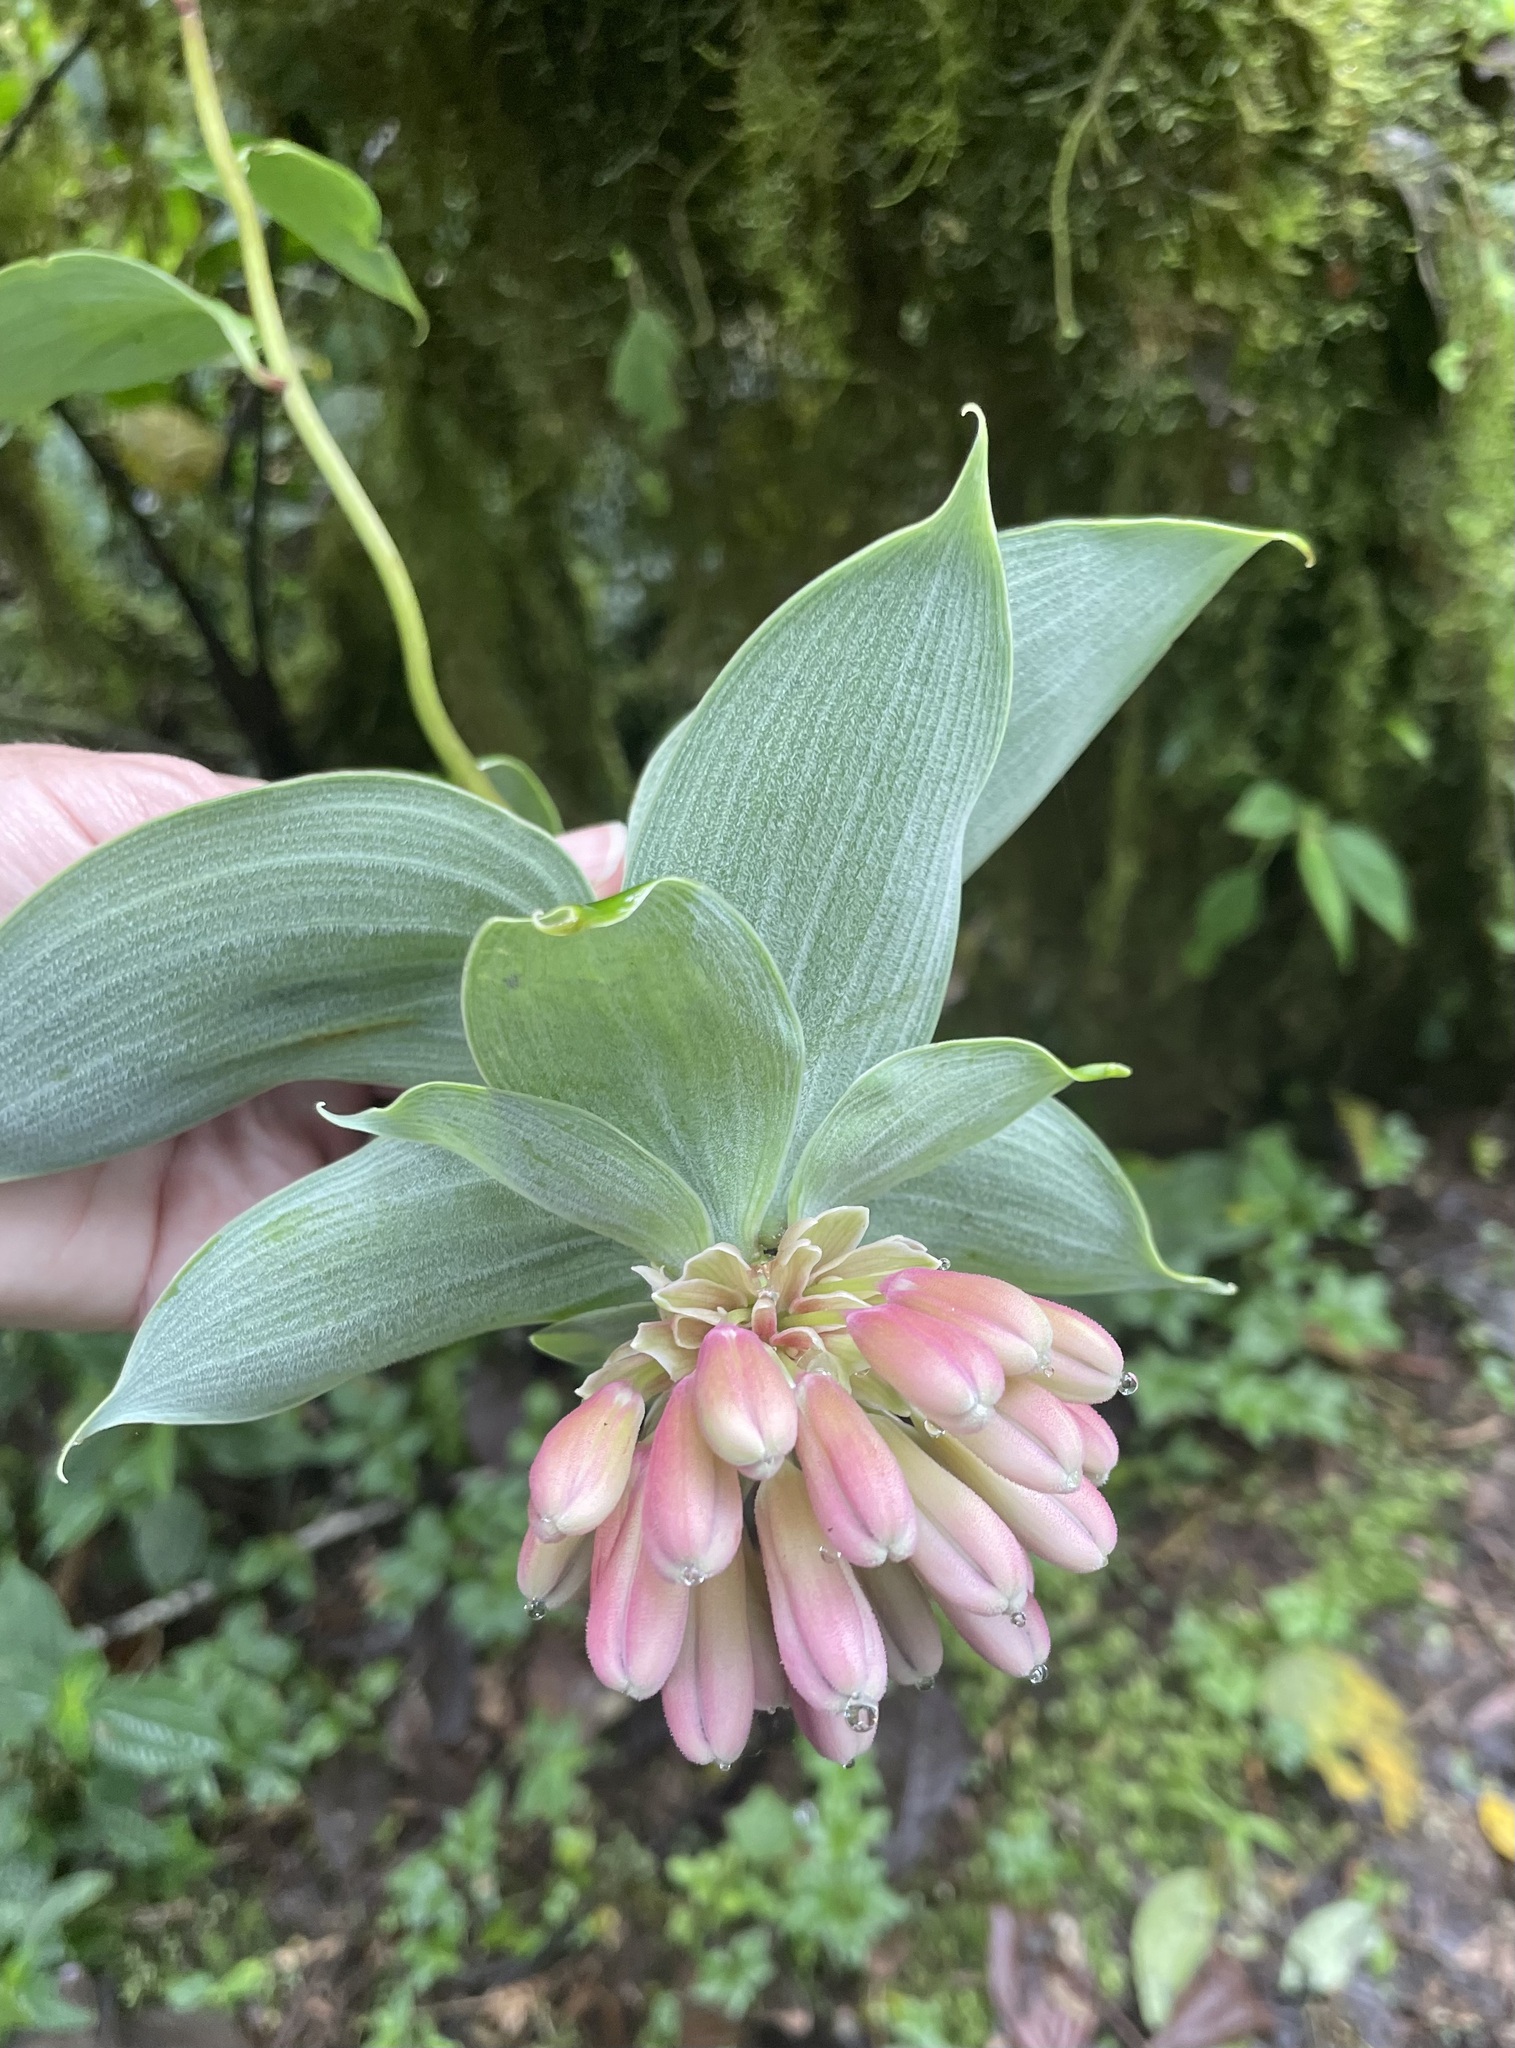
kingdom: Plantae
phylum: Tracheophyta
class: Liliopsida
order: Liliales
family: Alstroemeriaceae
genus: Bomarea
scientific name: Bomarea pardina
